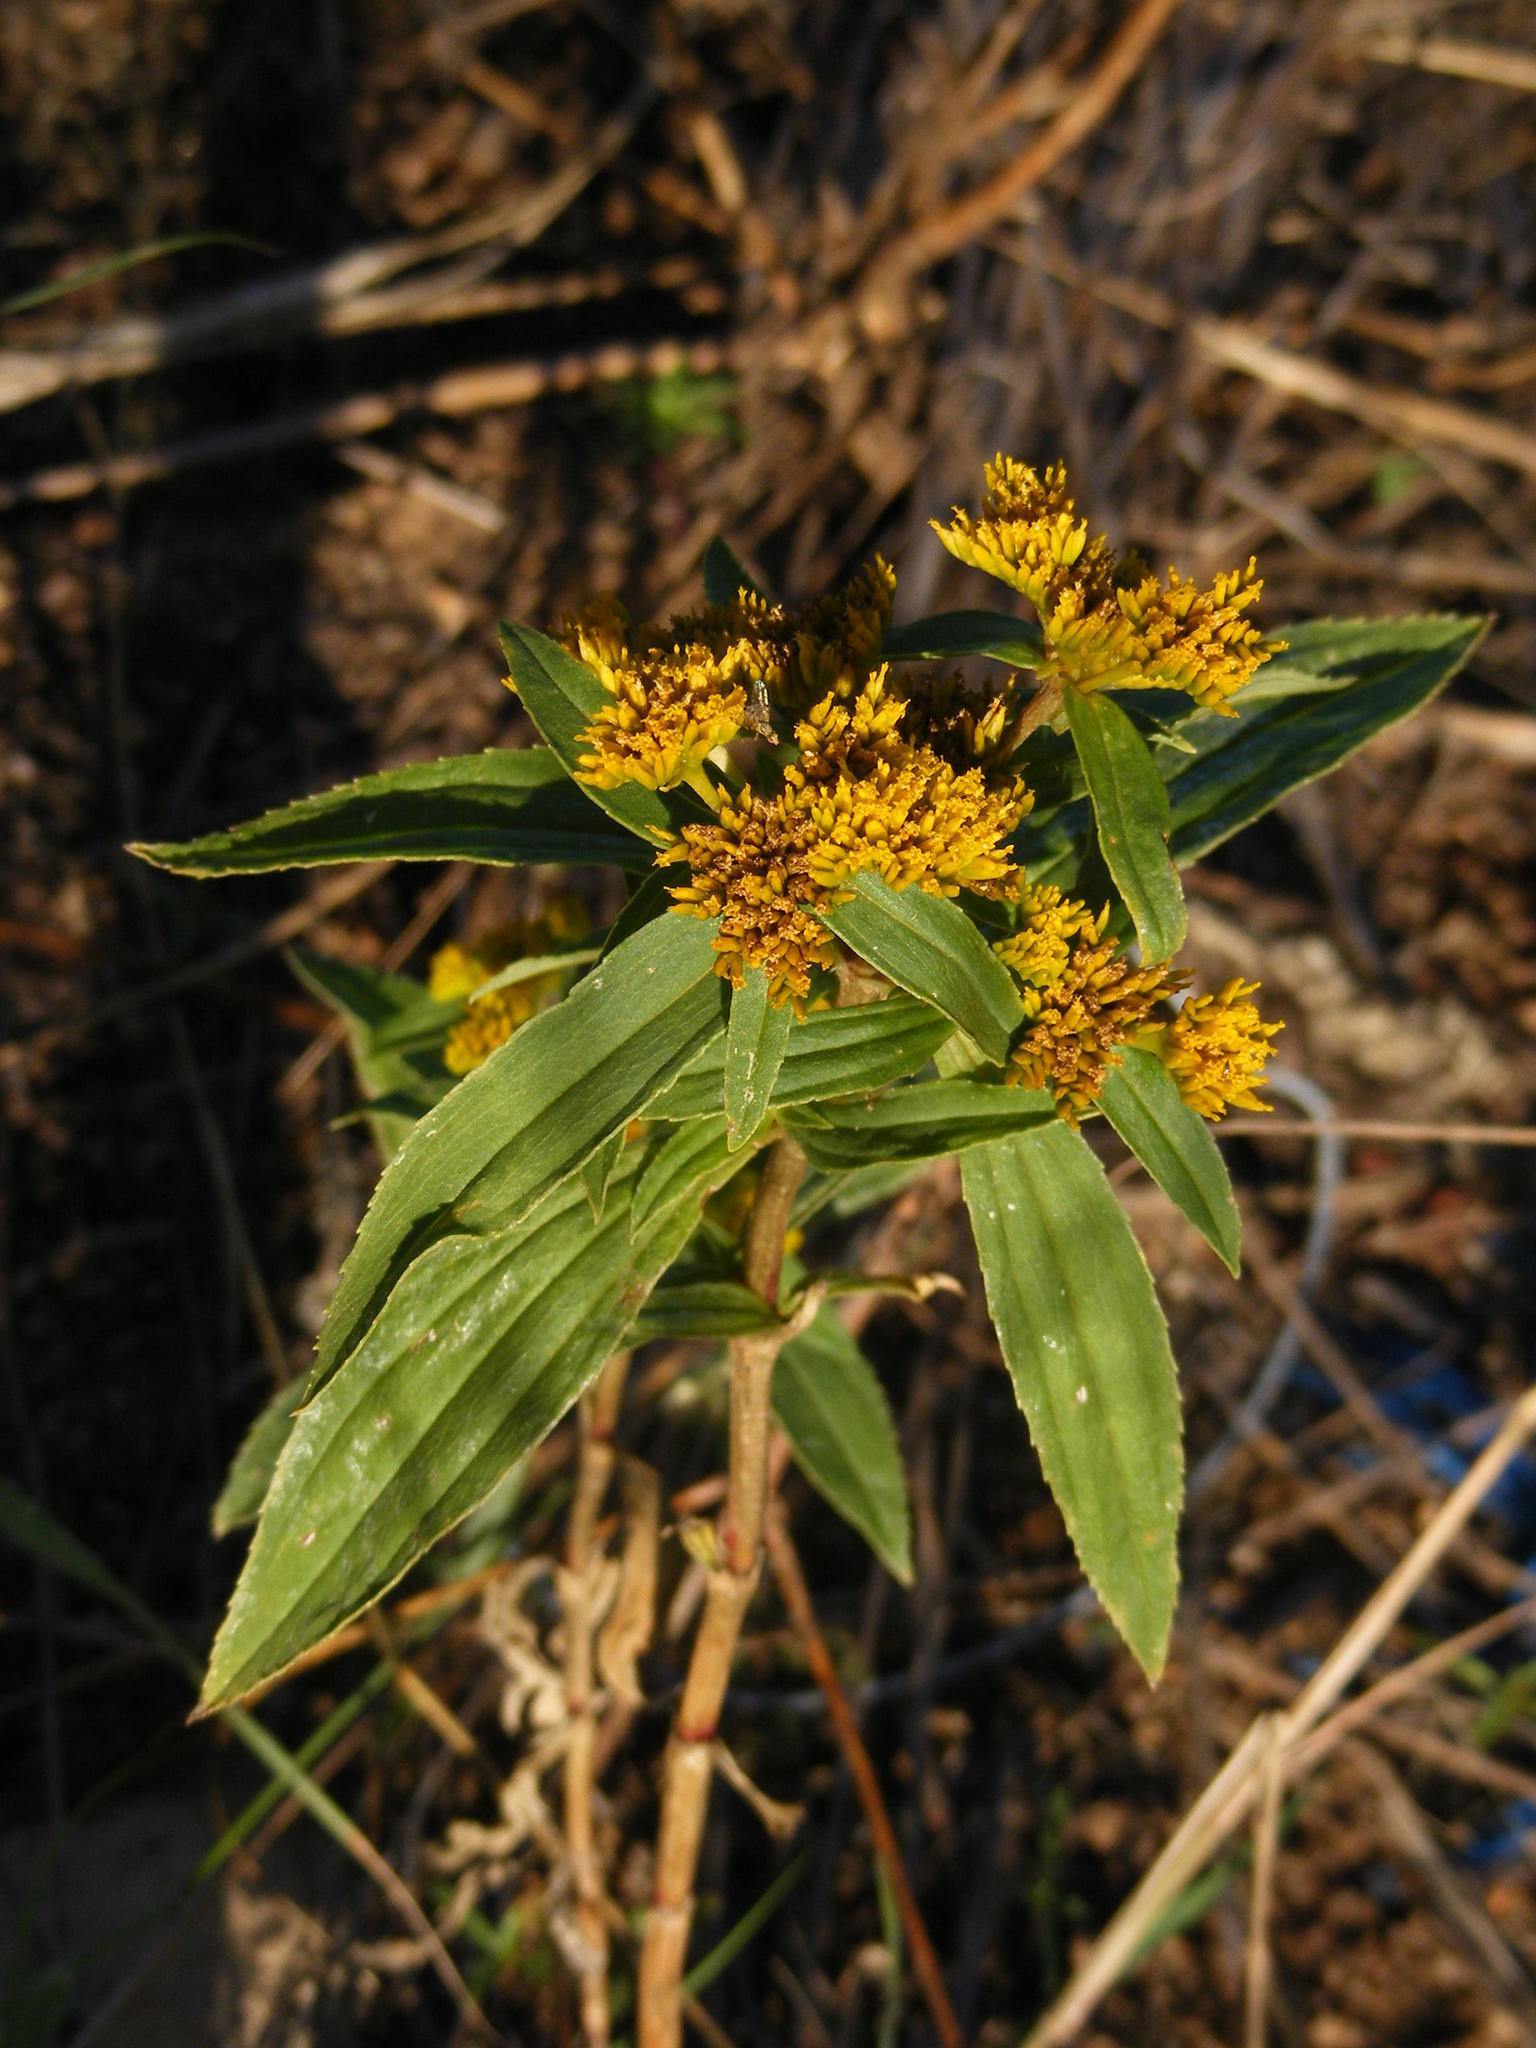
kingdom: Plantae
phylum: Tracheophyta
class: Magnoliopsida
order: Asterales
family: Asteraceae
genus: Flaveria
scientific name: Flaveria bidentis
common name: Coastal plain yellowtops
